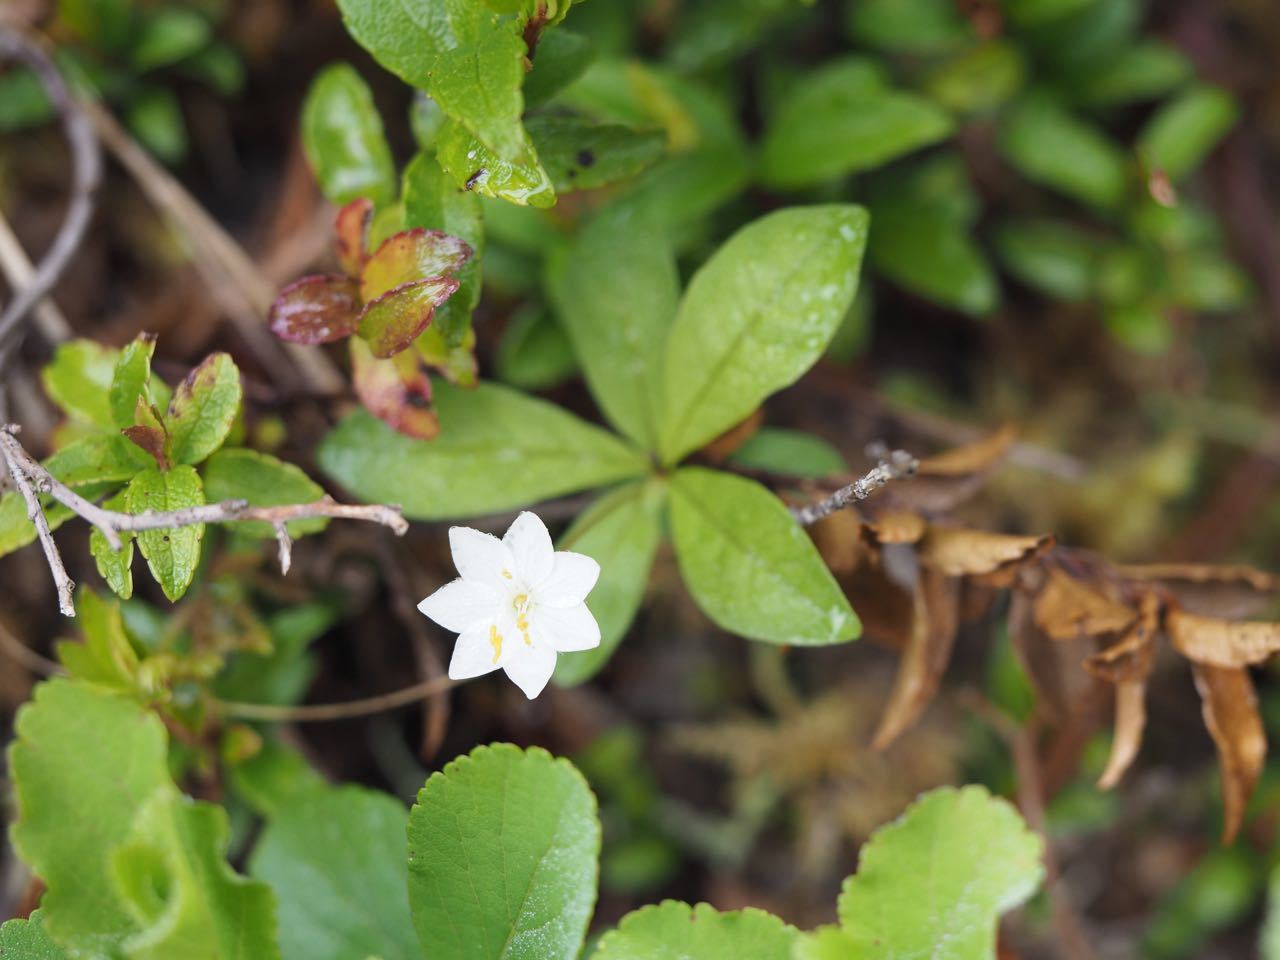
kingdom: Plantae
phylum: Tracheophyta
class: Magnoliopsida
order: Ericales
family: Primulaceae
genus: Lysimachia
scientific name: Lysimachia europaea
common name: Arctic starflower
